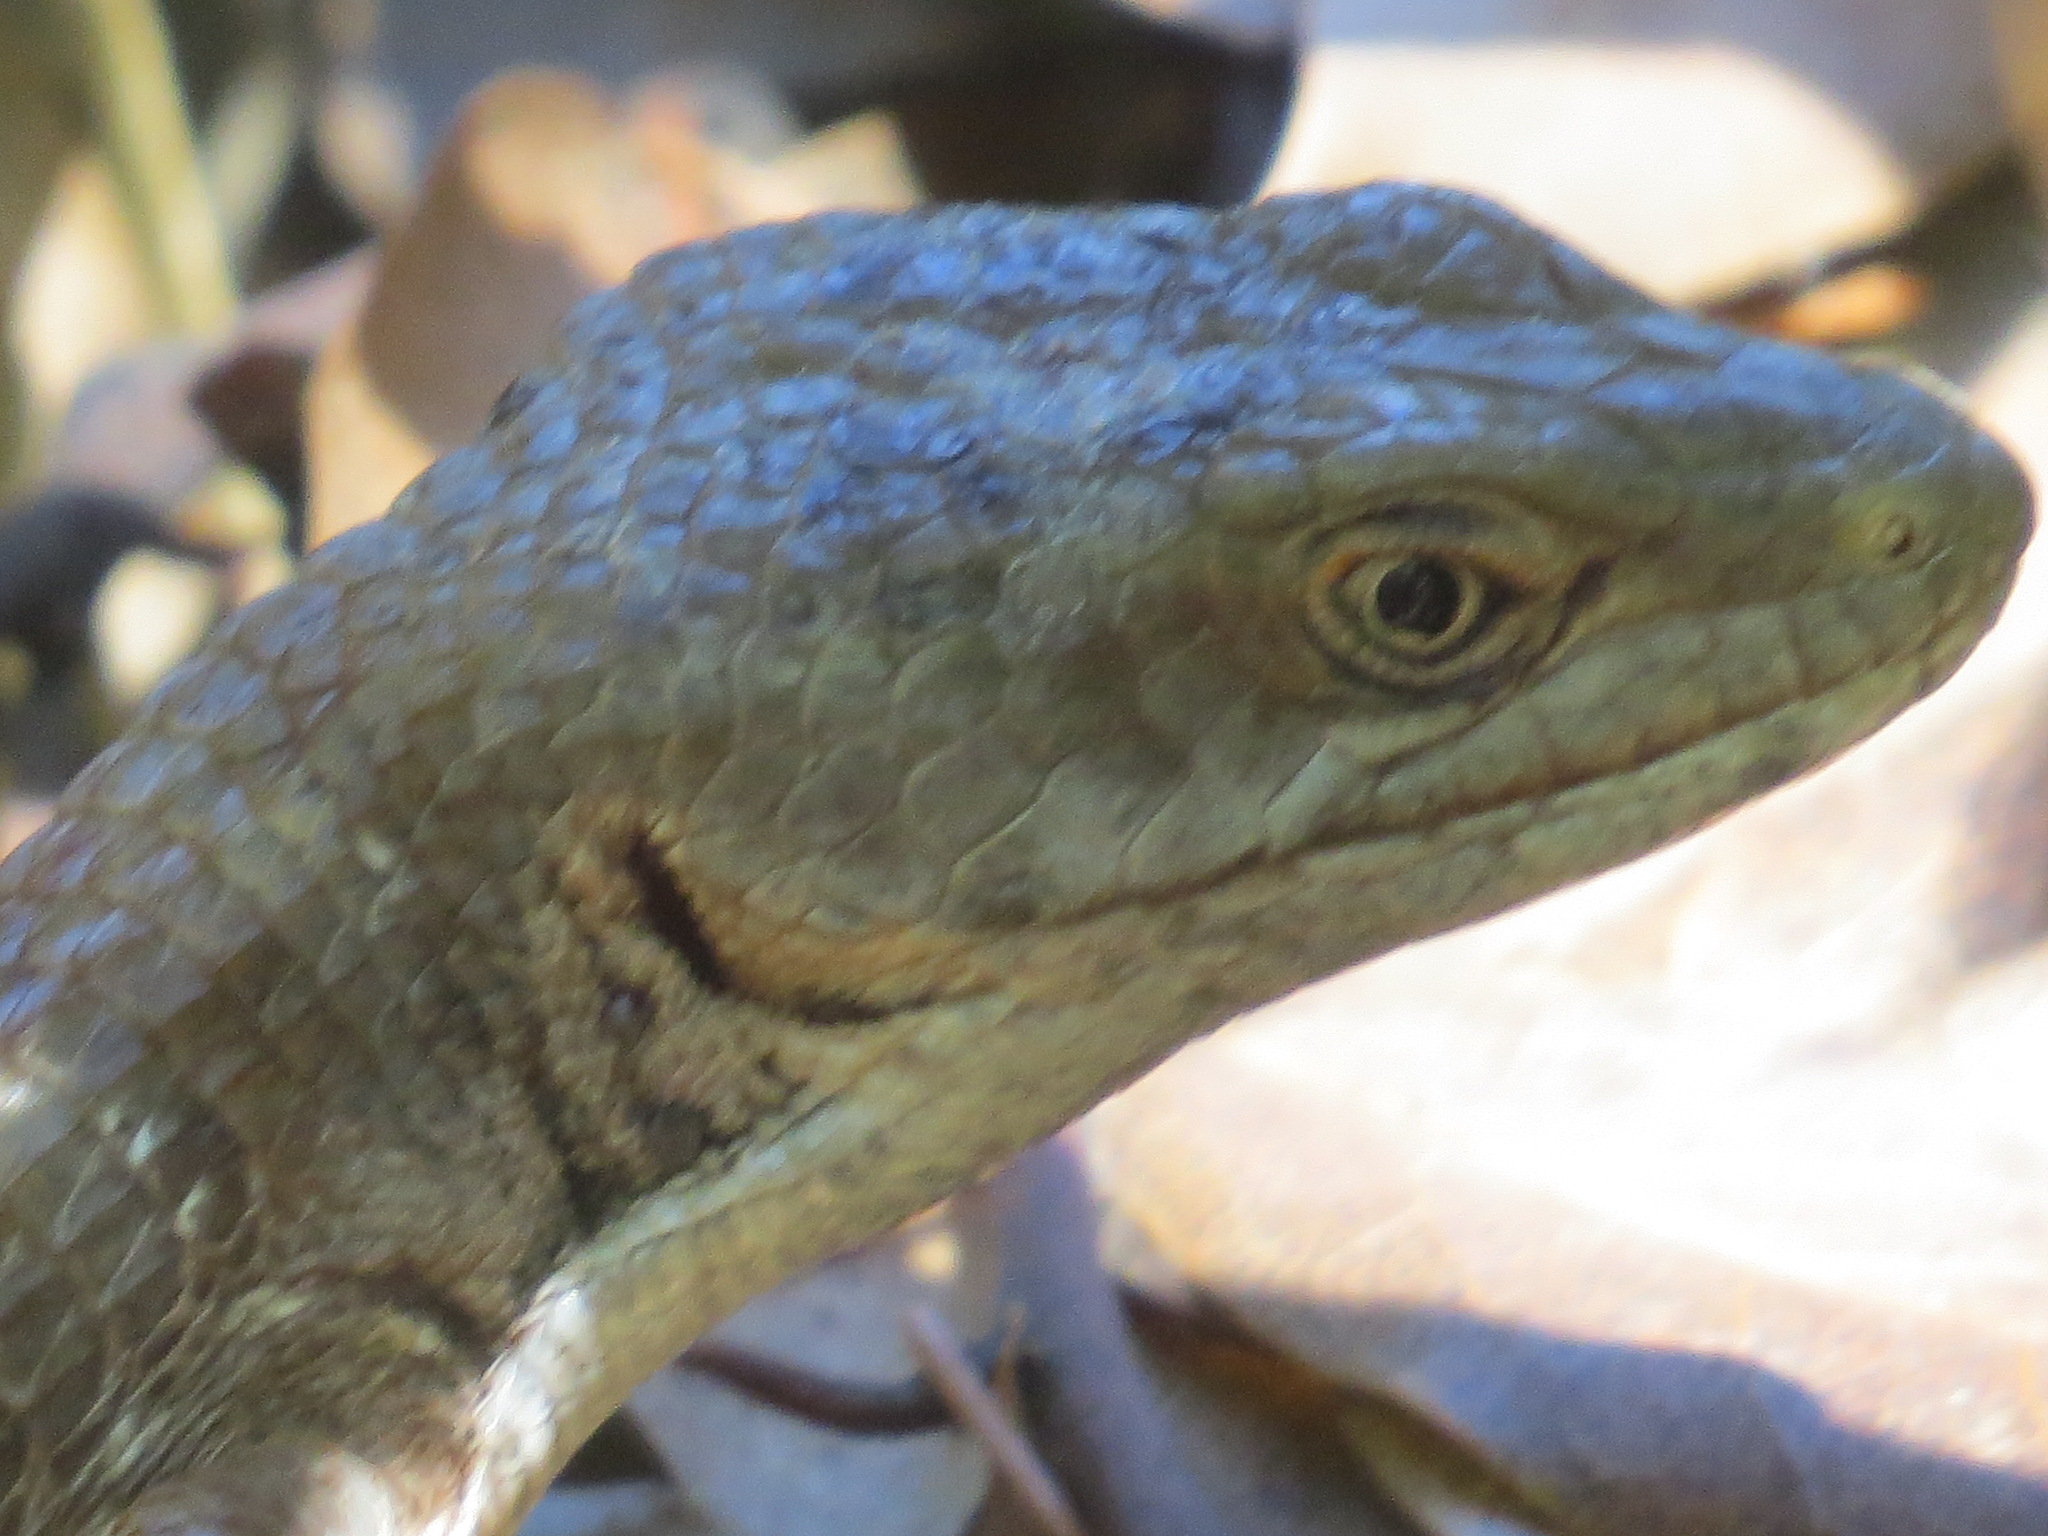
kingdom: Animalia
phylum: Chordata
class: Squamata
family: Anguidae
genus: Elgaria
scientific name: Elgaria multicarinata
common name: Southern alligator lizard
